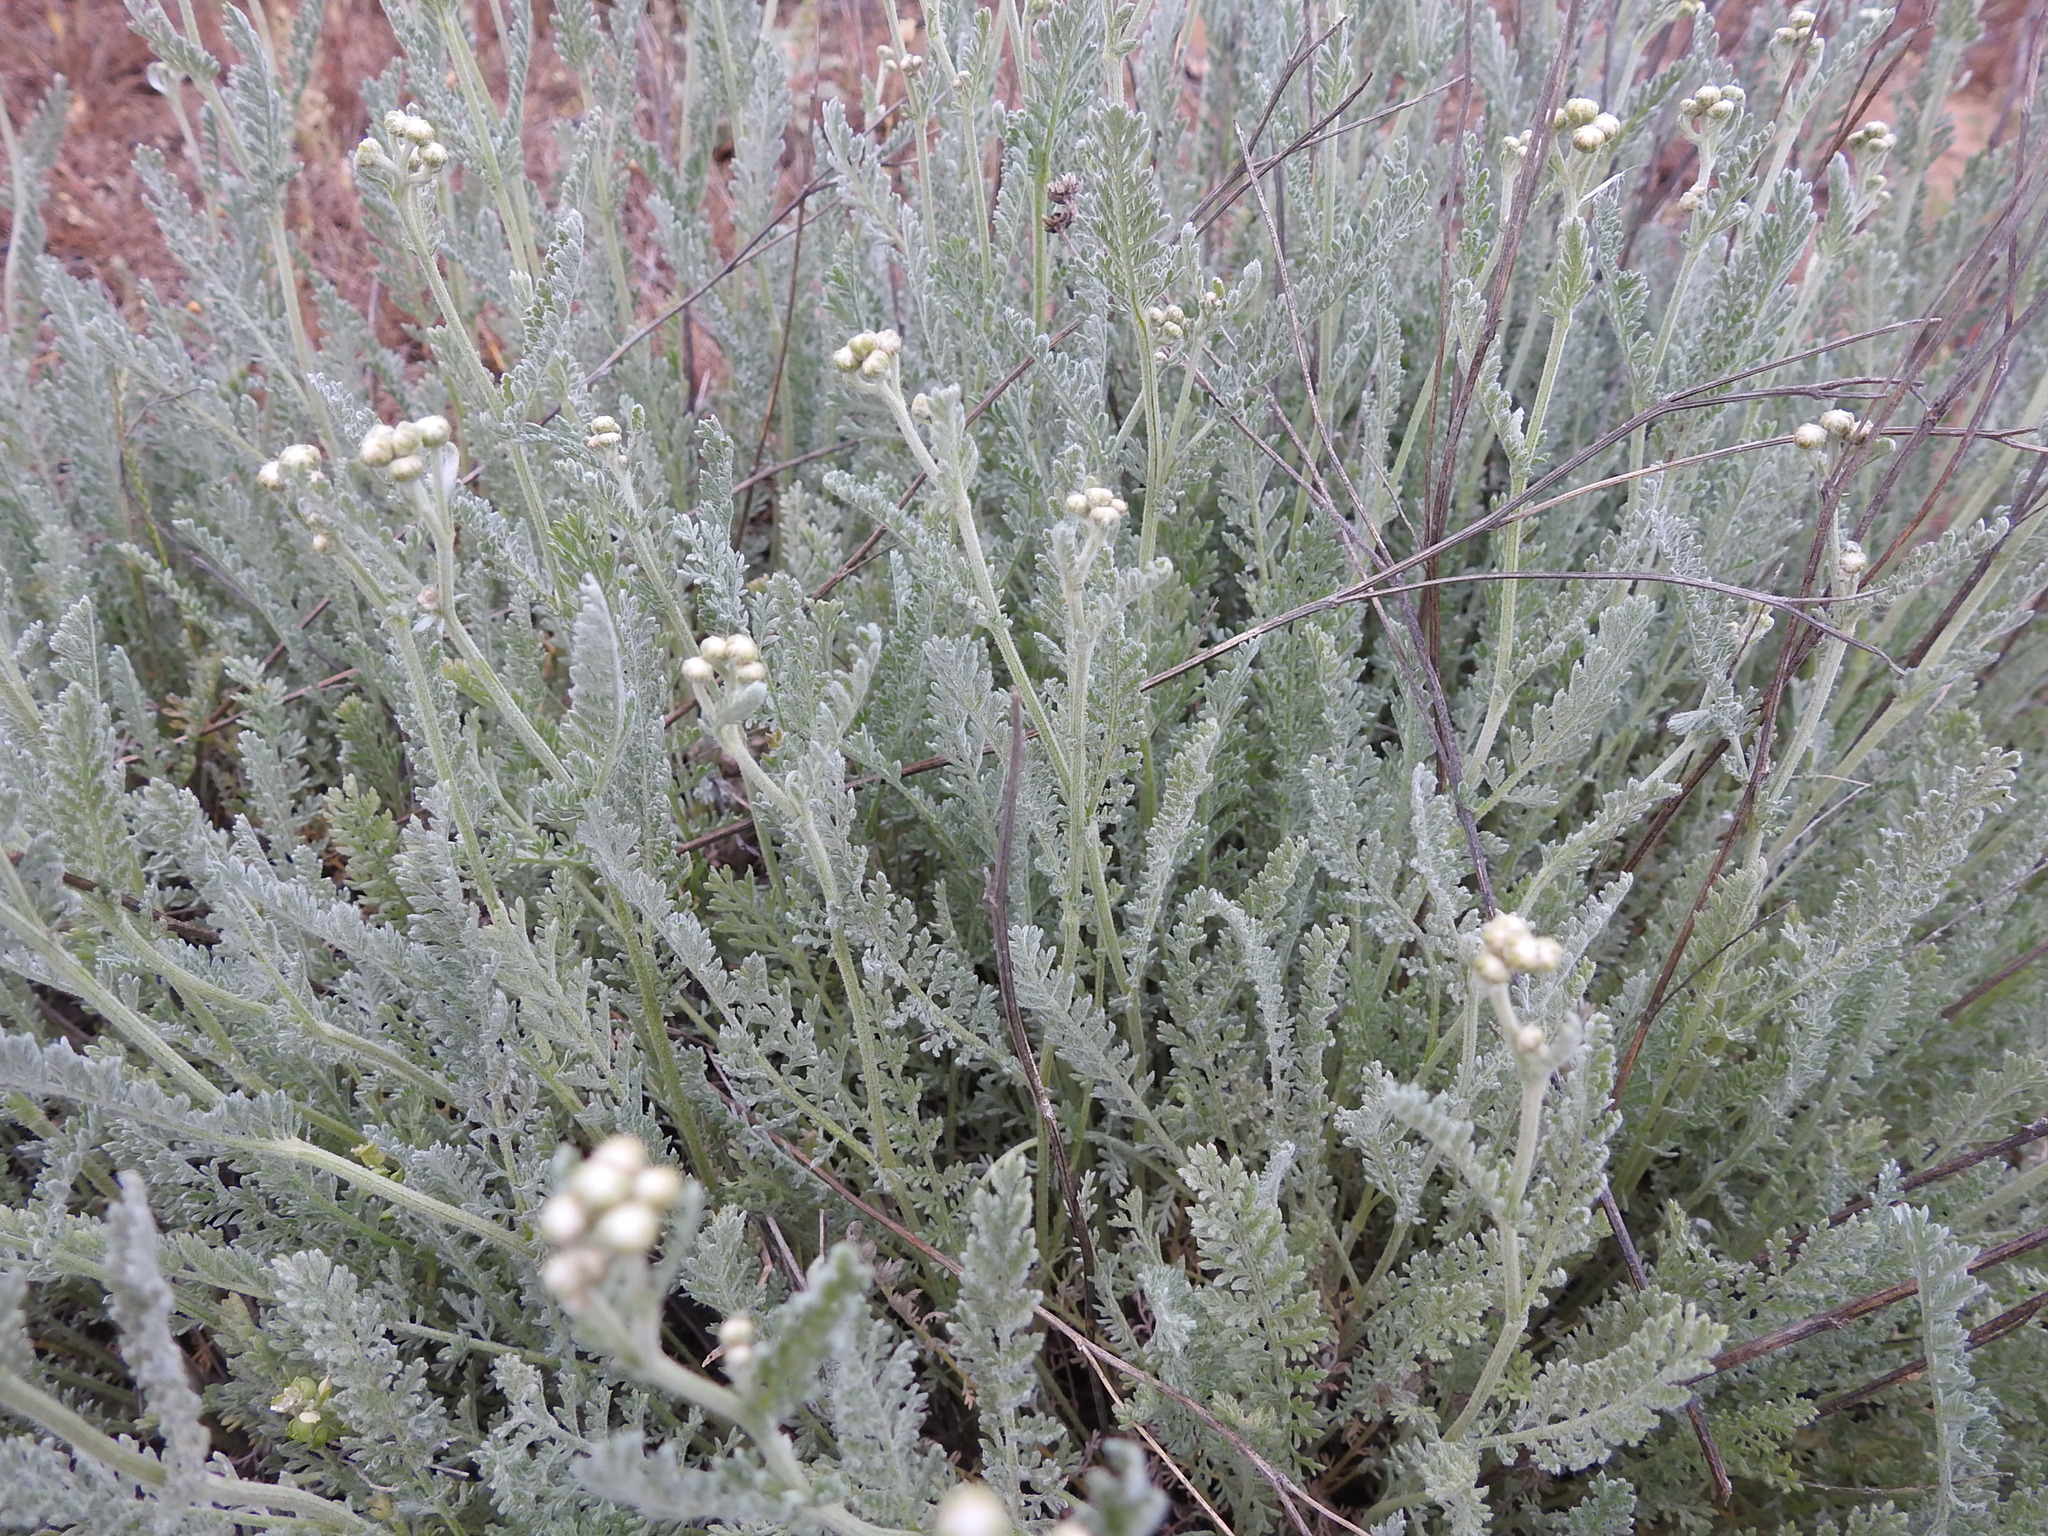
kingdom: Plantae
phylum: Tracheophyta
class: Magnoliopsida
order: Asterales
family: Asteraceae
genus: Tanacetum
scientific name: Tanacetum achilleifolium
